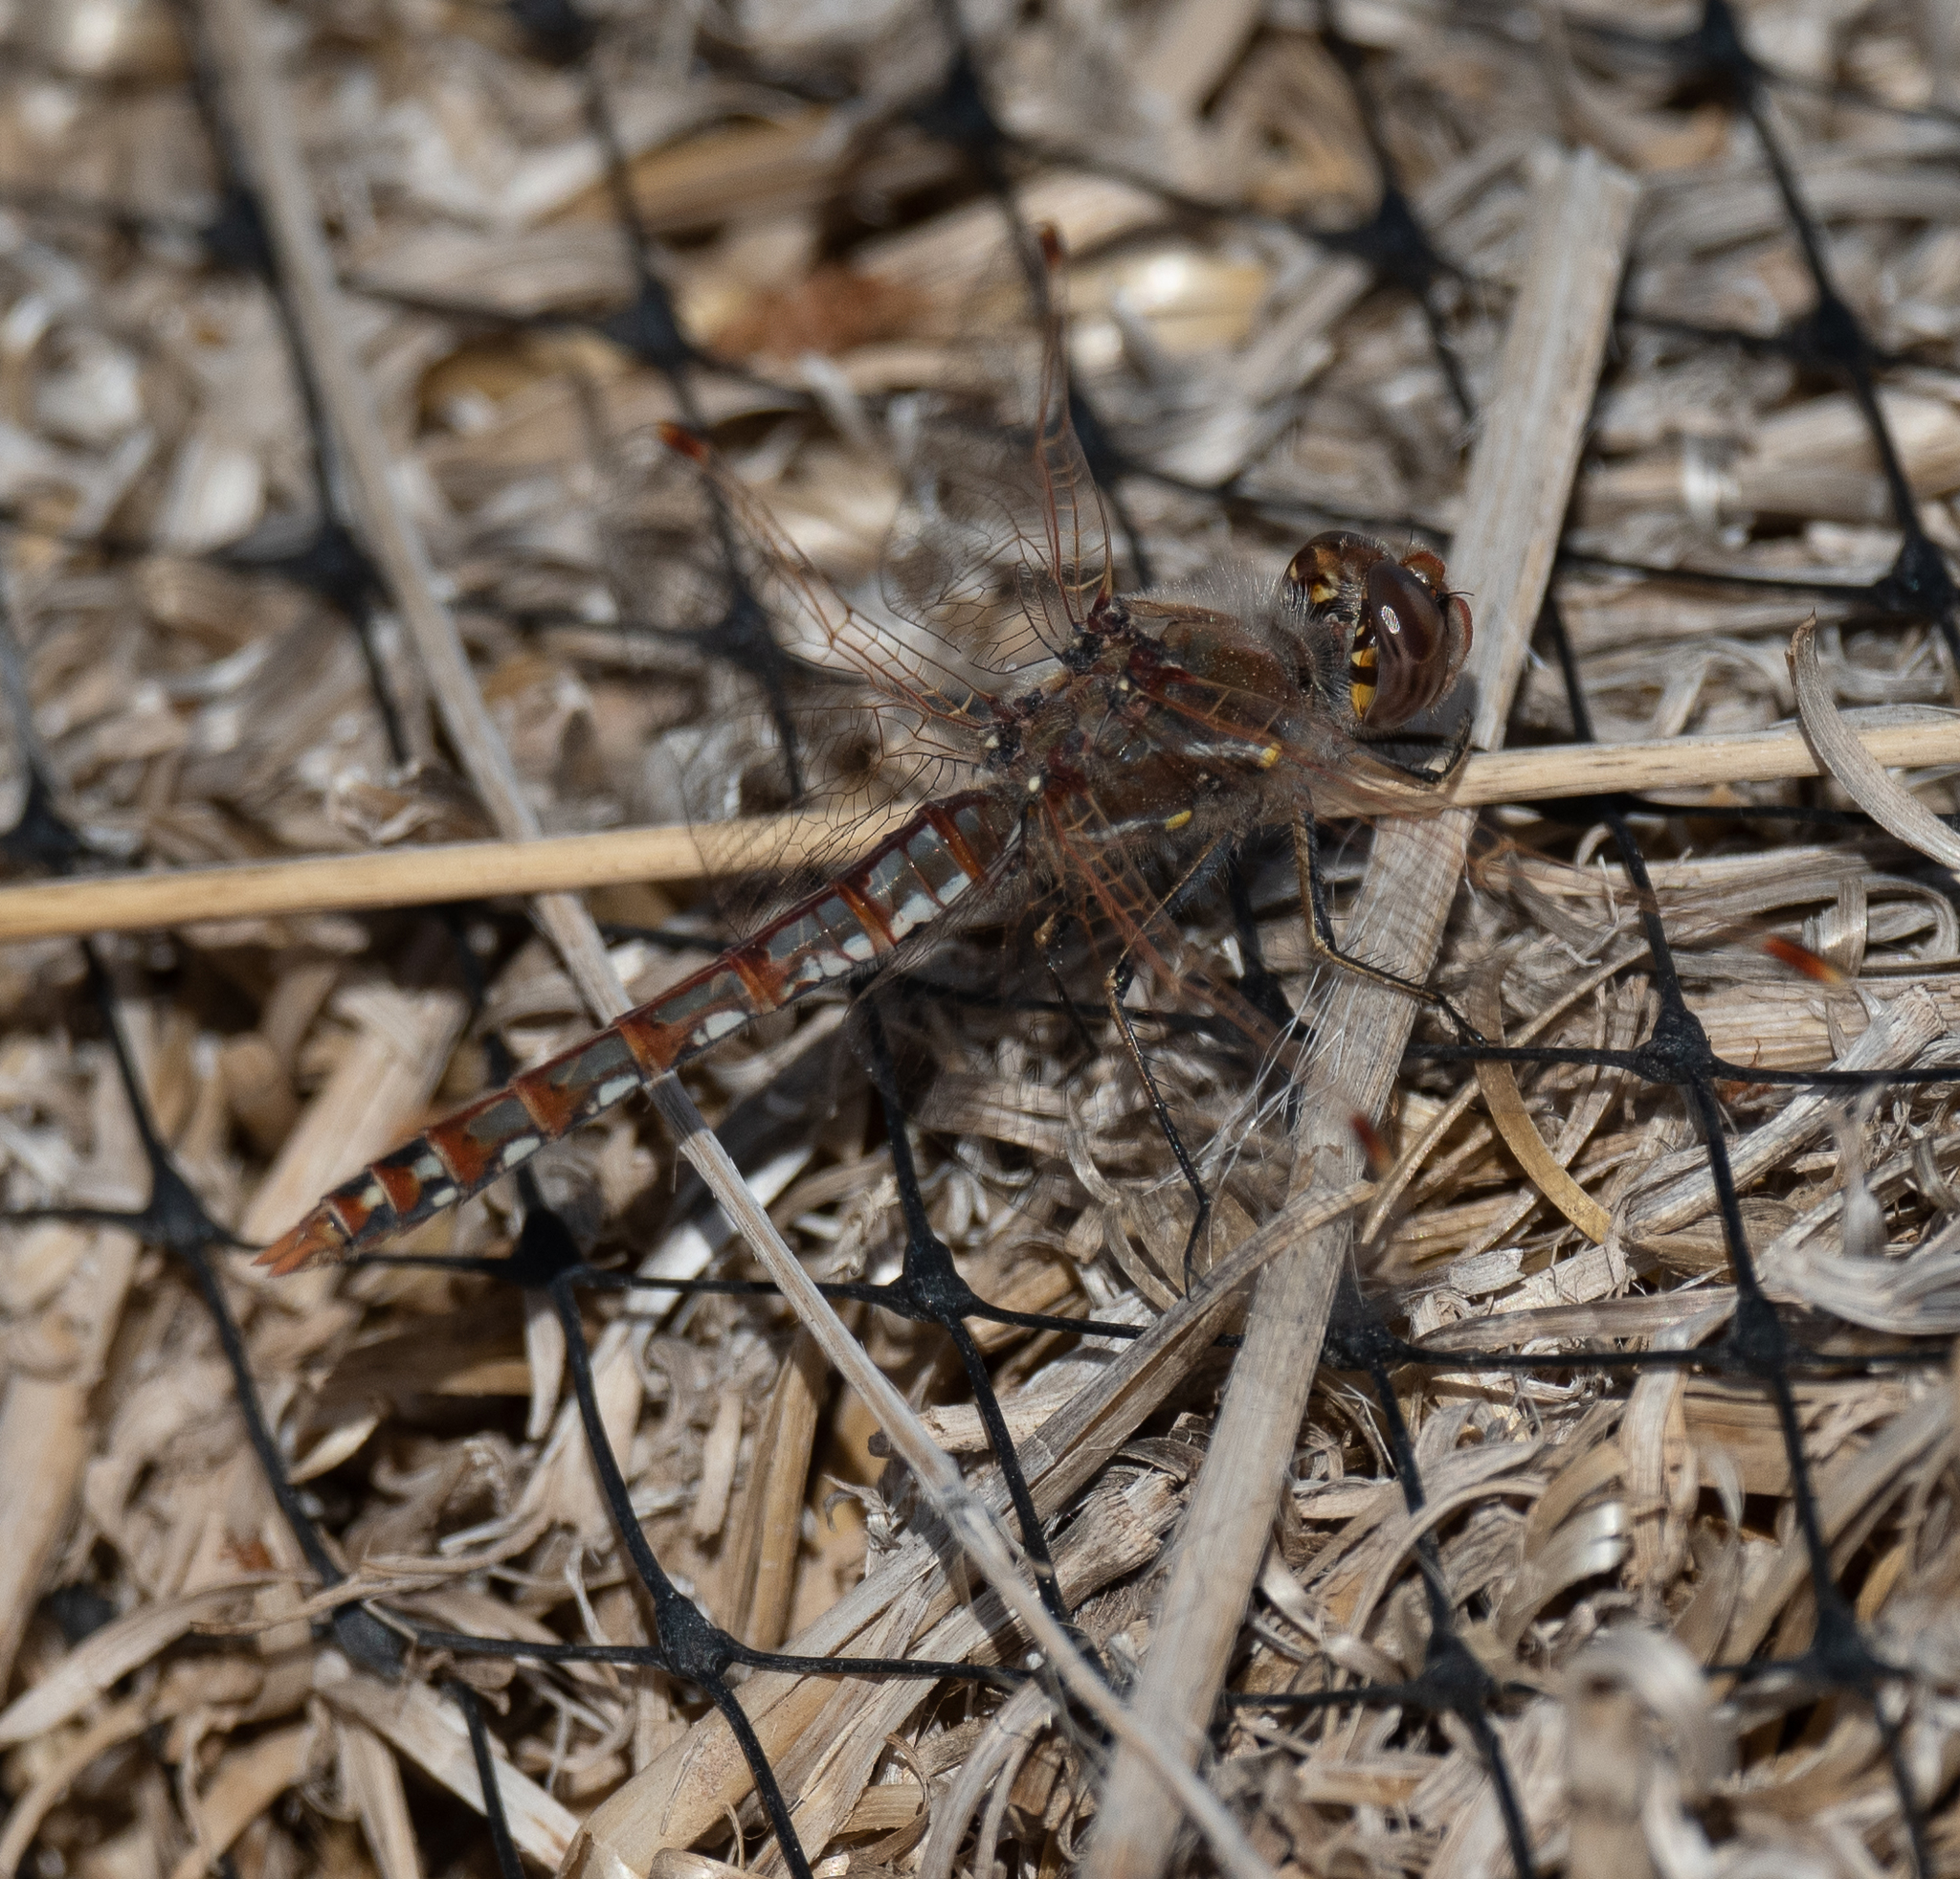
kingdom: Animalia
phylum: Arthropoda
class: Insecta
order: Odonata
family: Libellulidae
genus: Sympetrum
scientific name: Sympetrum corruptum
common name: Variegated meadowhawk
